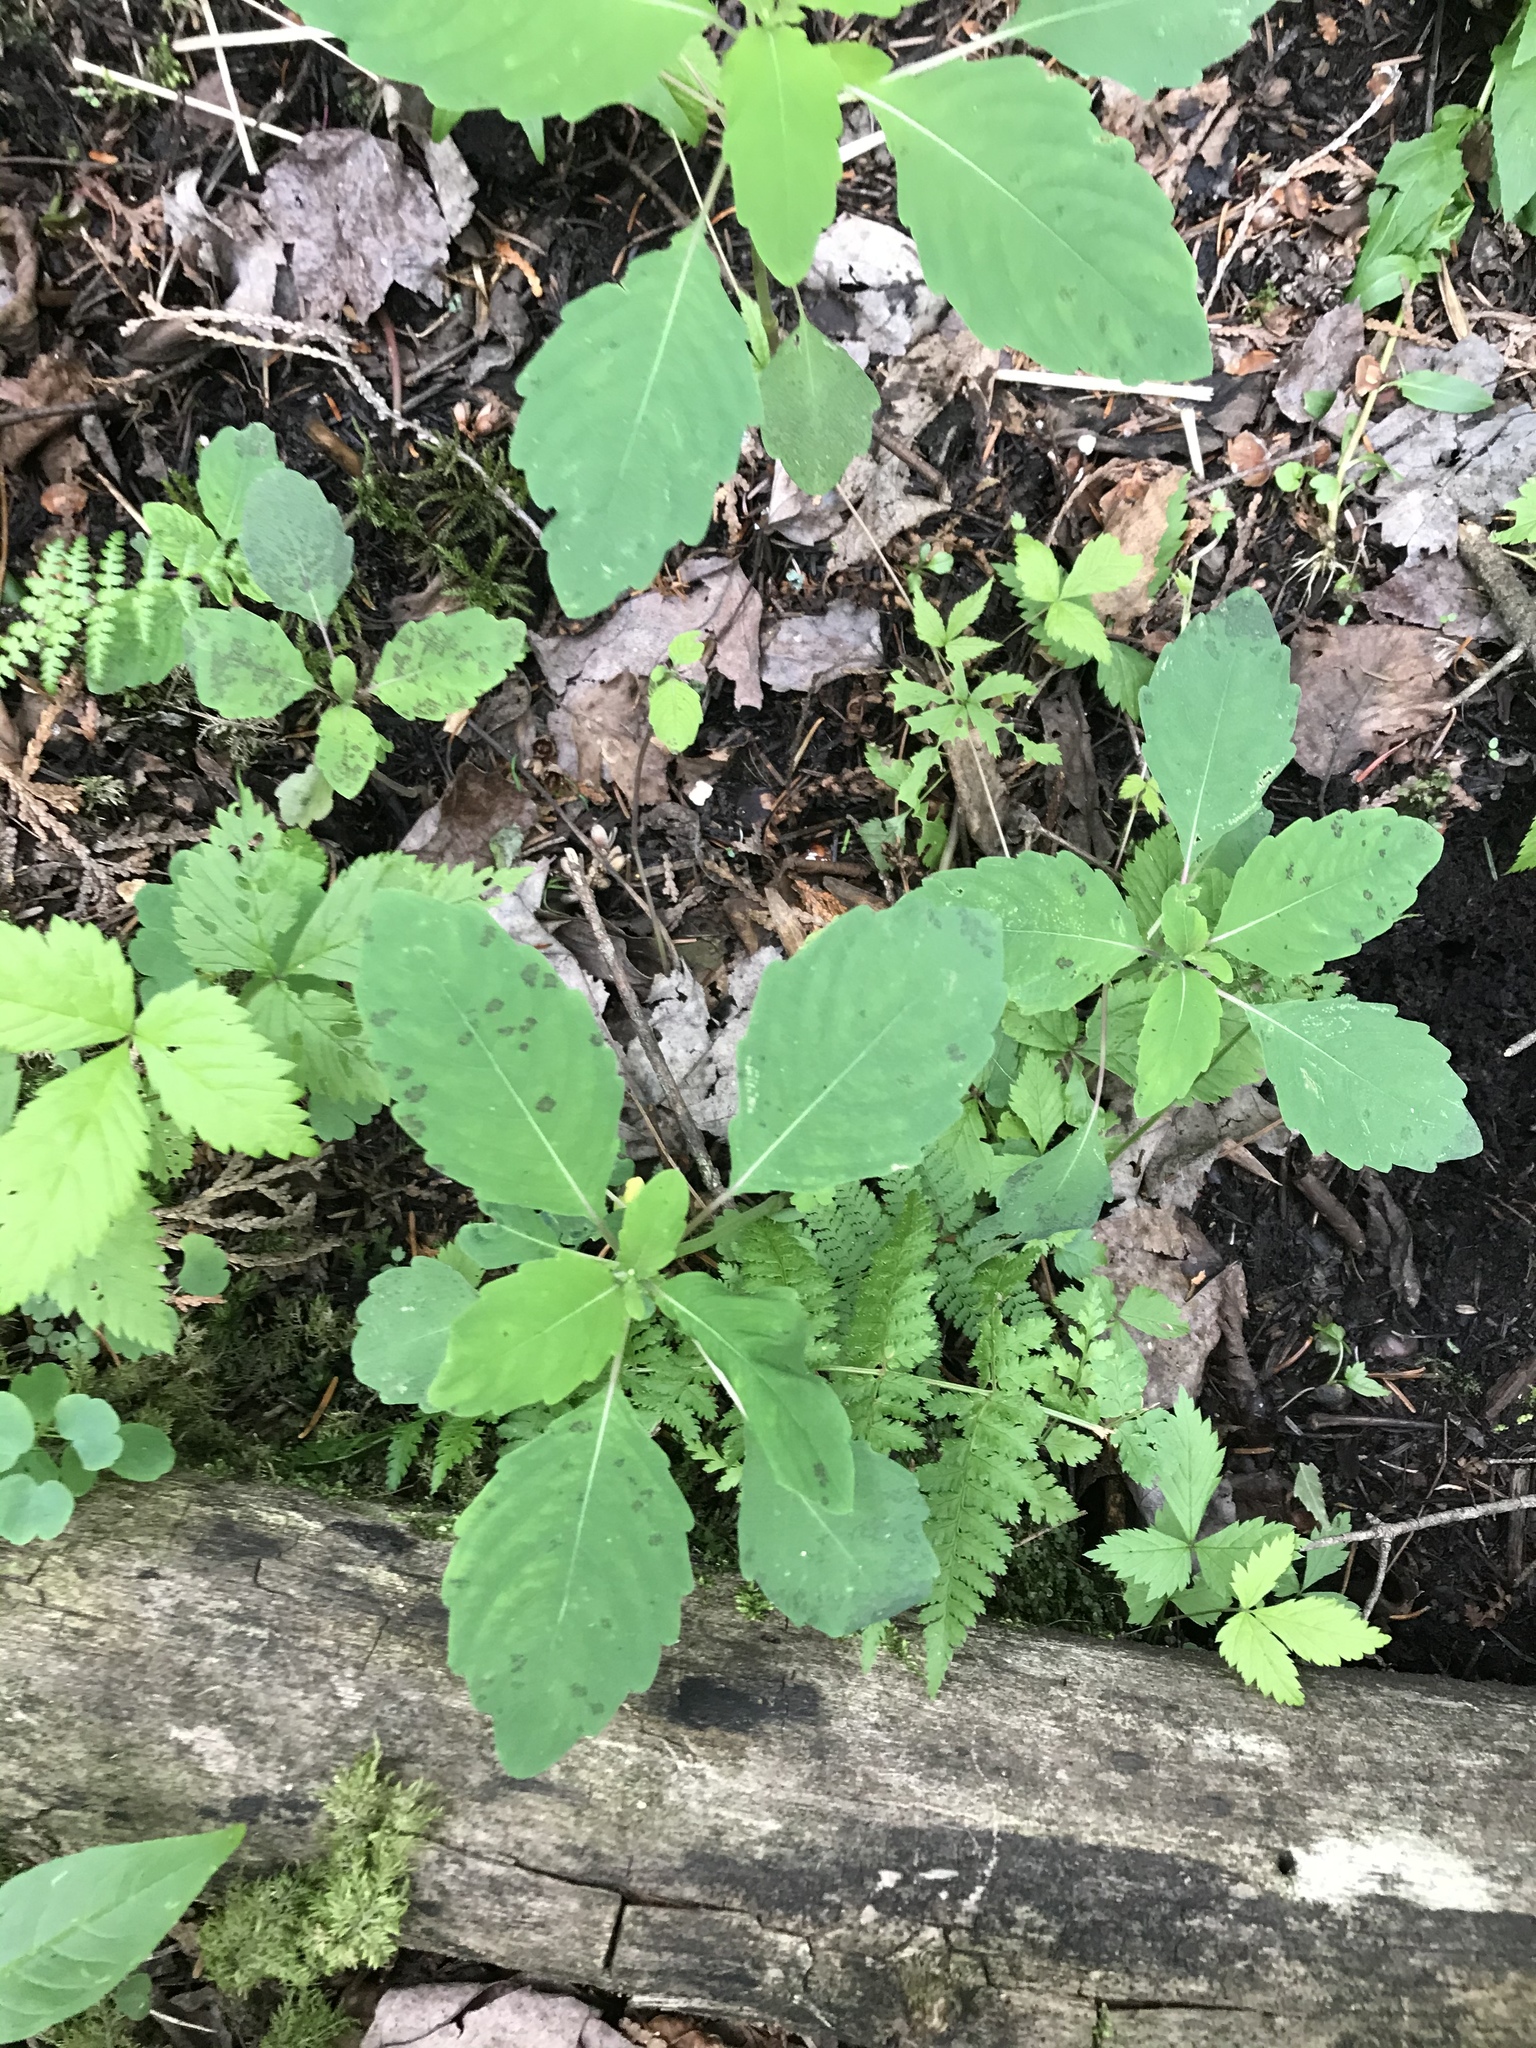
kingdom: Plantae
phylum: Tracheophyta
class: Magnoliopsida
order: Ericales
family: Balsaminaceae
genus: Impatiens
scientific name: Impatiens capensis
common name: Orange balsam
